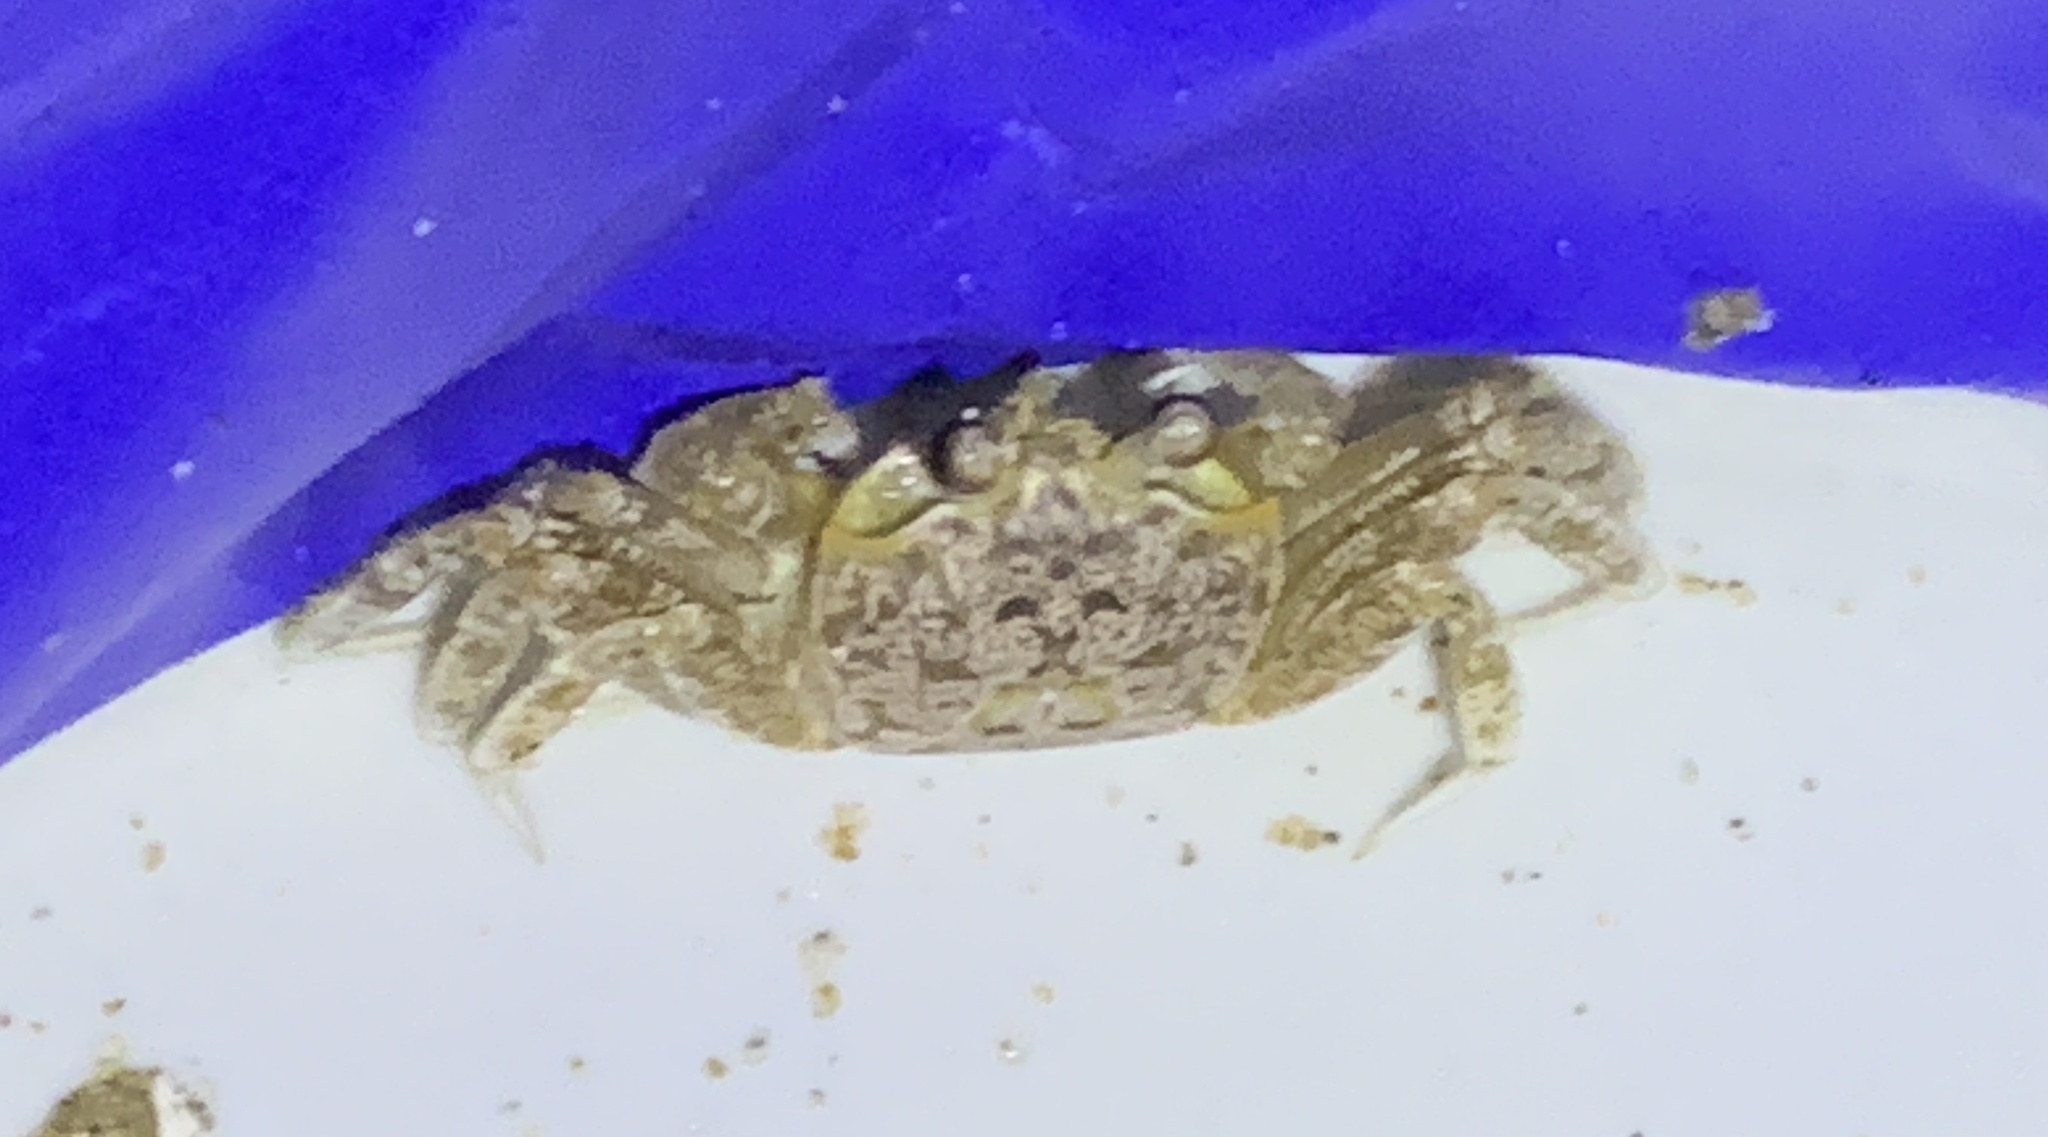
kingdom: Animalia
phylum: Arthropoda
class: Malacostraca
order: Decapoda
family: Ocypodidae
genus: Ocypode
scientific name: Ocypode quadrata
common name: Ghost crab
